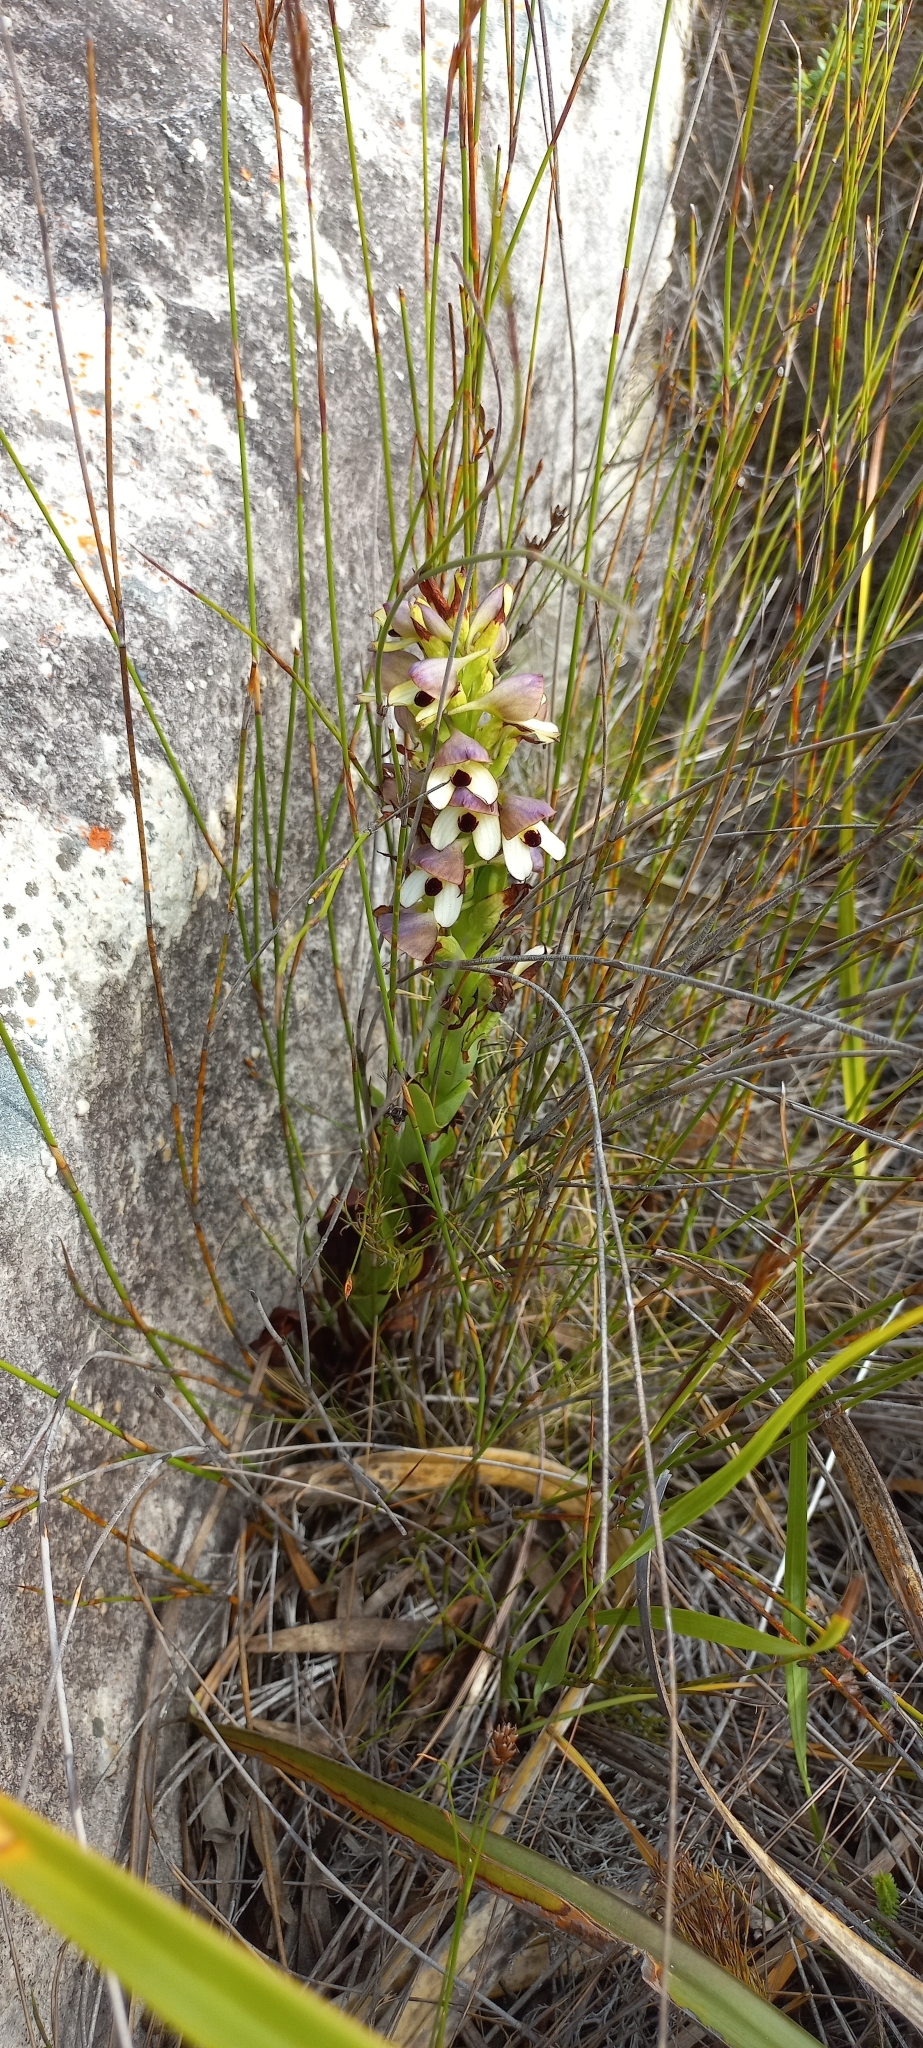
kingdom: Plantae
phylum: Tracheophyta
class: Liliopsida
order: Asparagales
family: Orchidaceae
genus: Disa
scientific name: Disa cornuta
